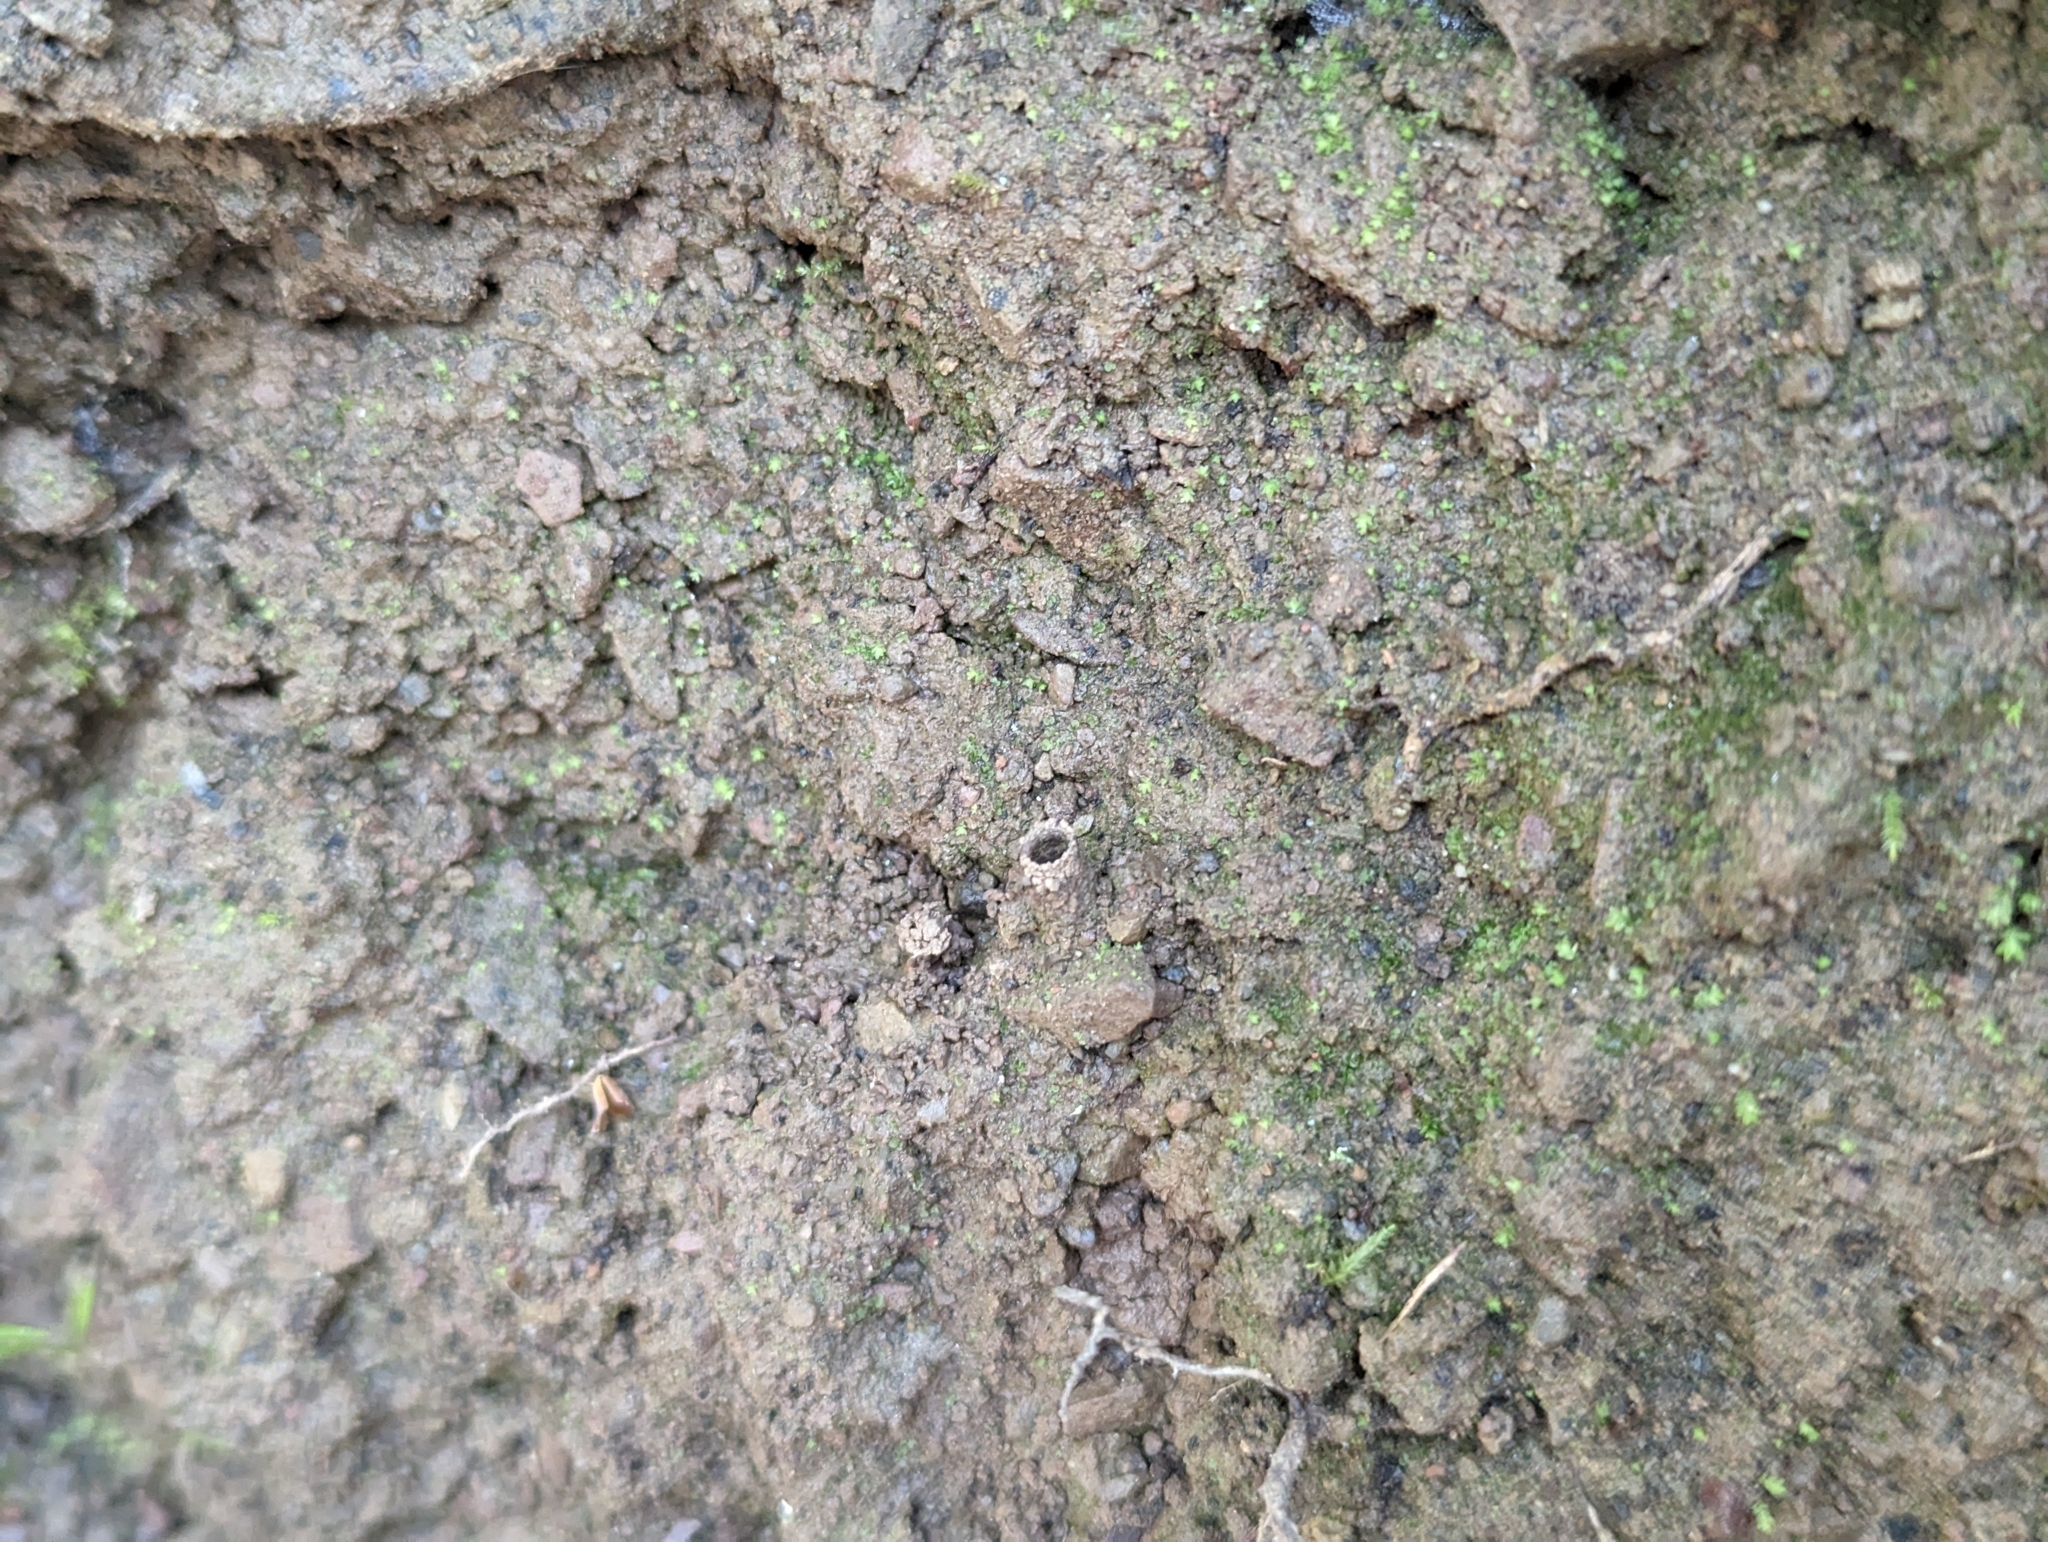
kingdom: Animalia
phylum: Arthropoda
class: Arachnida
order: Araneae
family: Antrodiaetidae
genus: Atypoides
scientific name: Atypoides riversi
